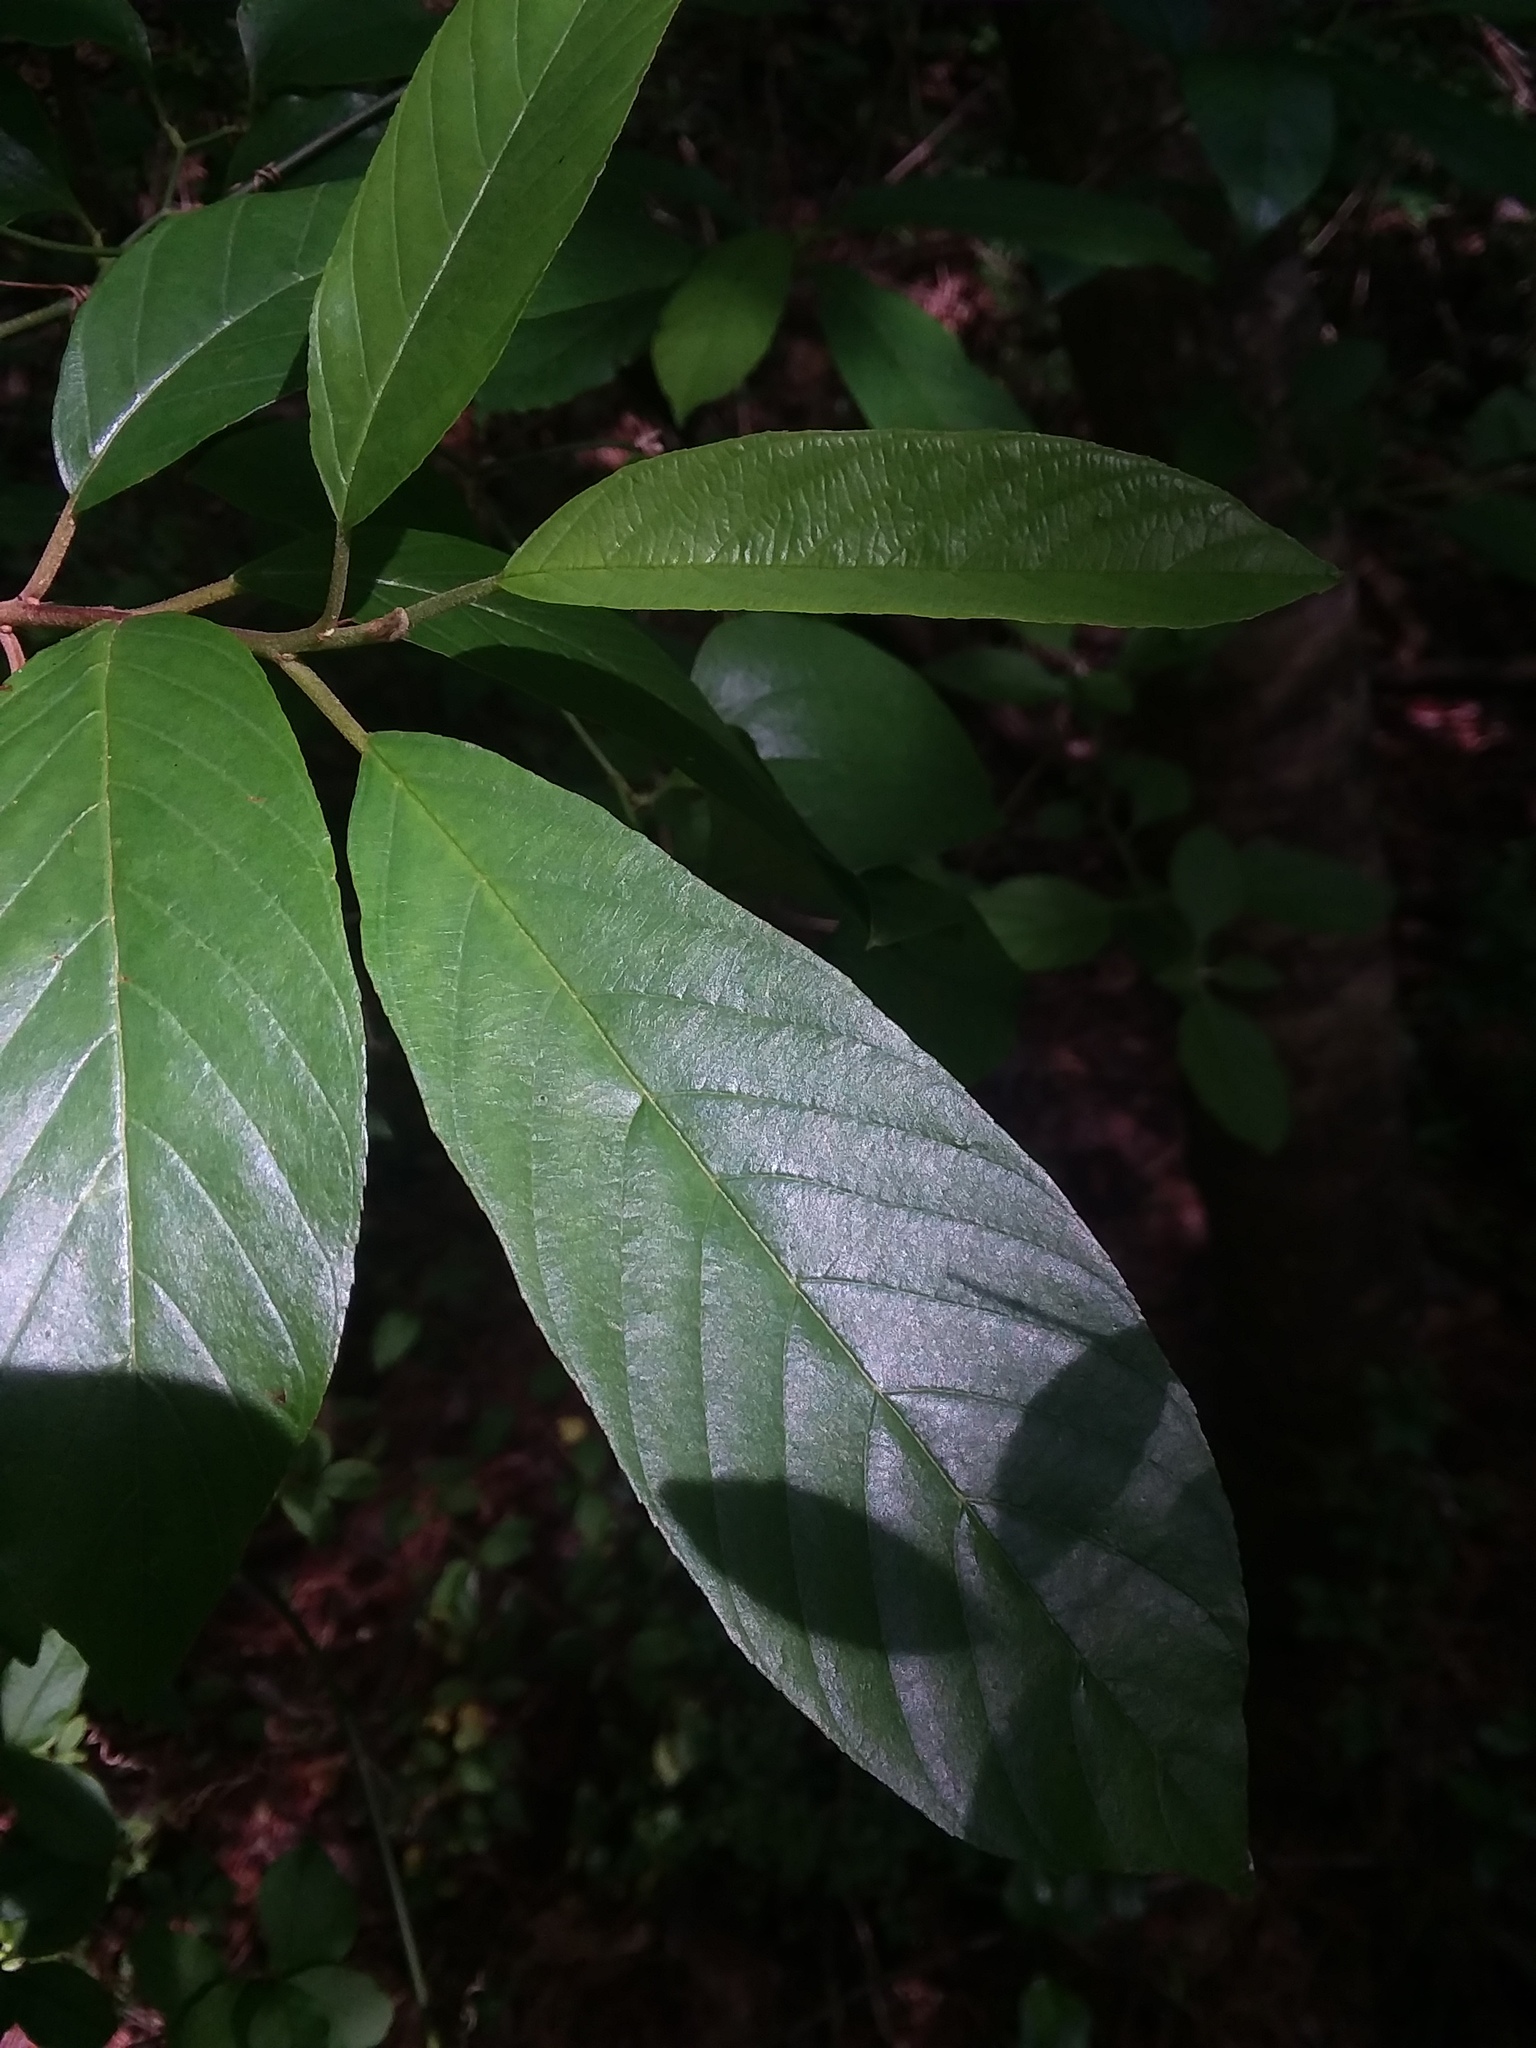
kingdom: Plantae
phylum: Tracheophyta
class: Magnoliopsida
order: Rosales
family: Rhamnaceae
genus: Frangula
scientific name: Frangula caroliniana
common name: Carolina buckthorn
